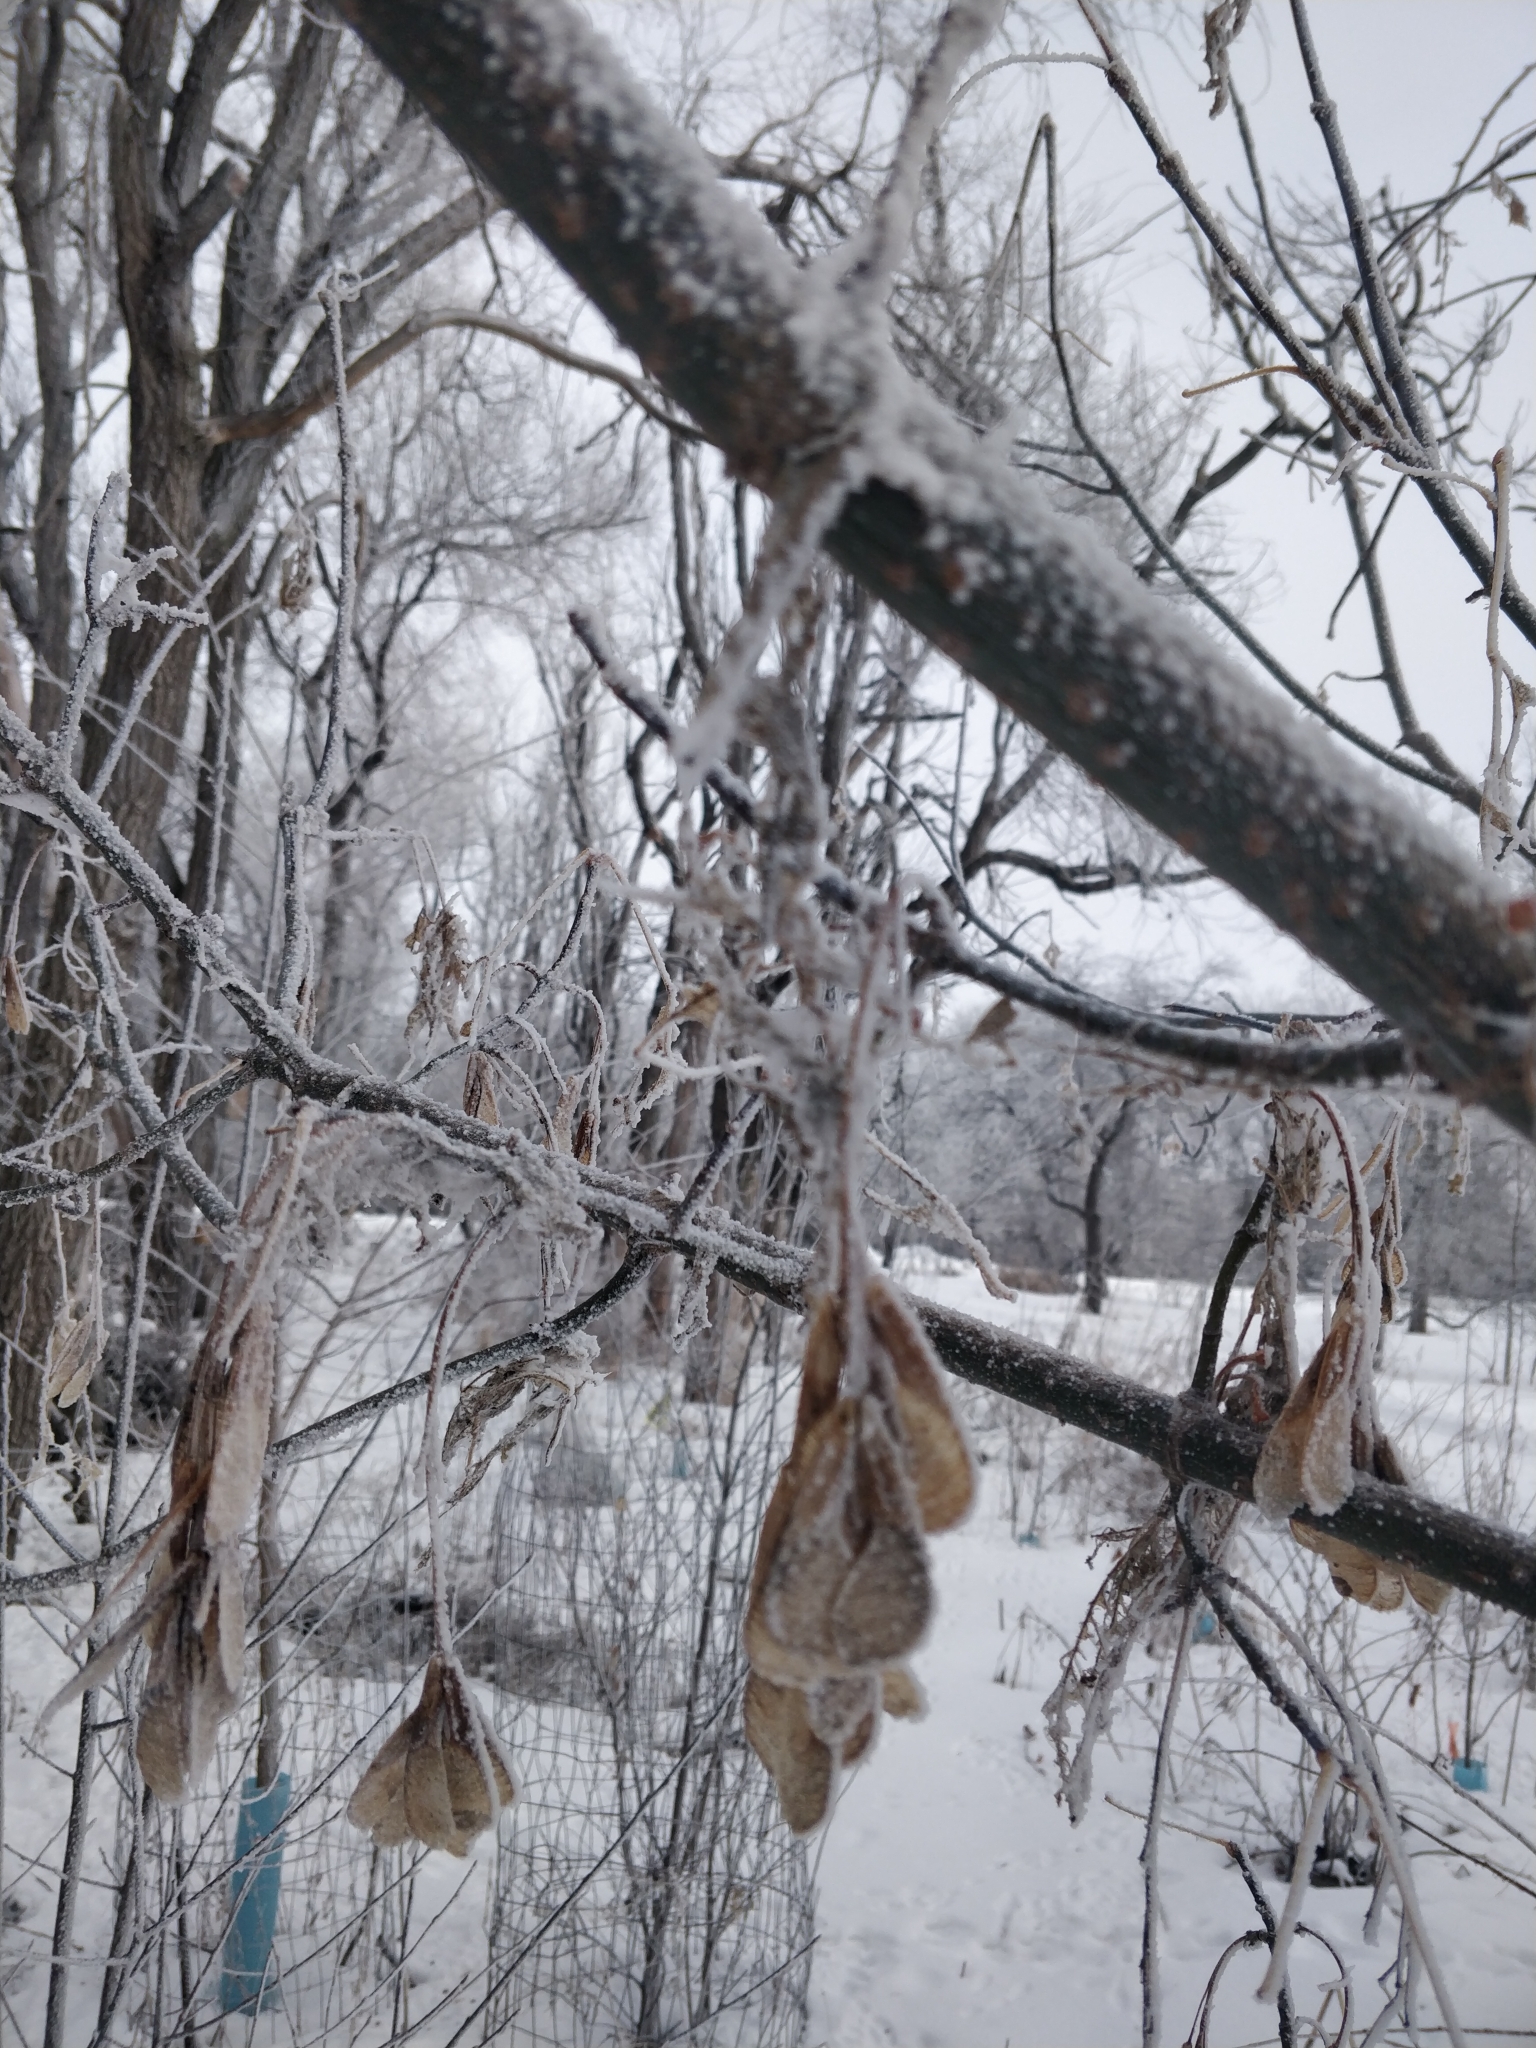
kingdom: Plantae
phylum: Tracheophyta
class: Magnoliopsida
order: Sapindales
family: Sapindaceae
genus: Acer
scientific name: Acer negundo
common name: Ashleaf maple
